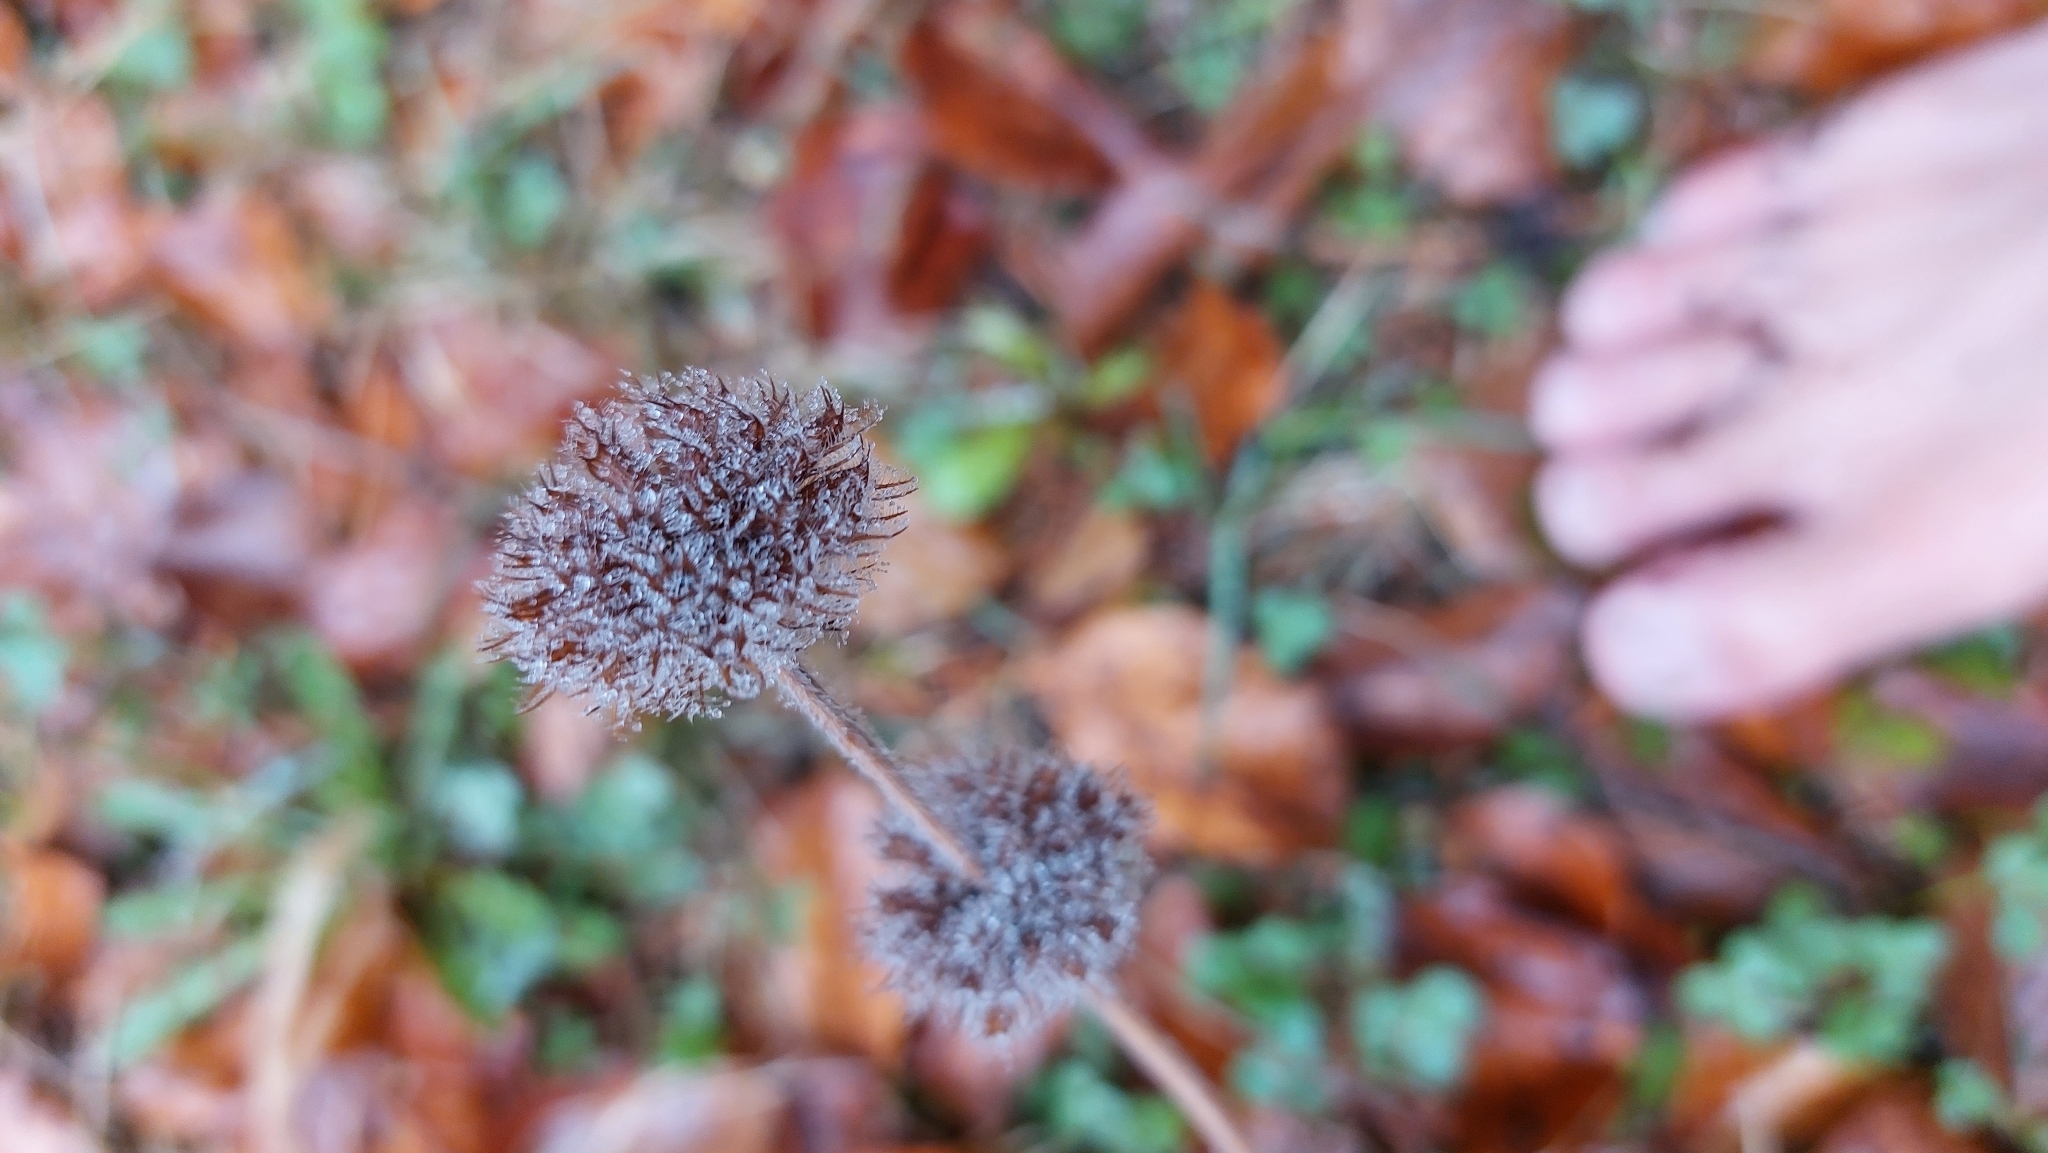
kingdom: Plantae
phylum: Tracheophyta
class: Magnoliopsida
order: Lamiales
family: Lamiaceae
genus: Clinopodium
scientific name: Clinopodium vulgare
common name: Wild basil
